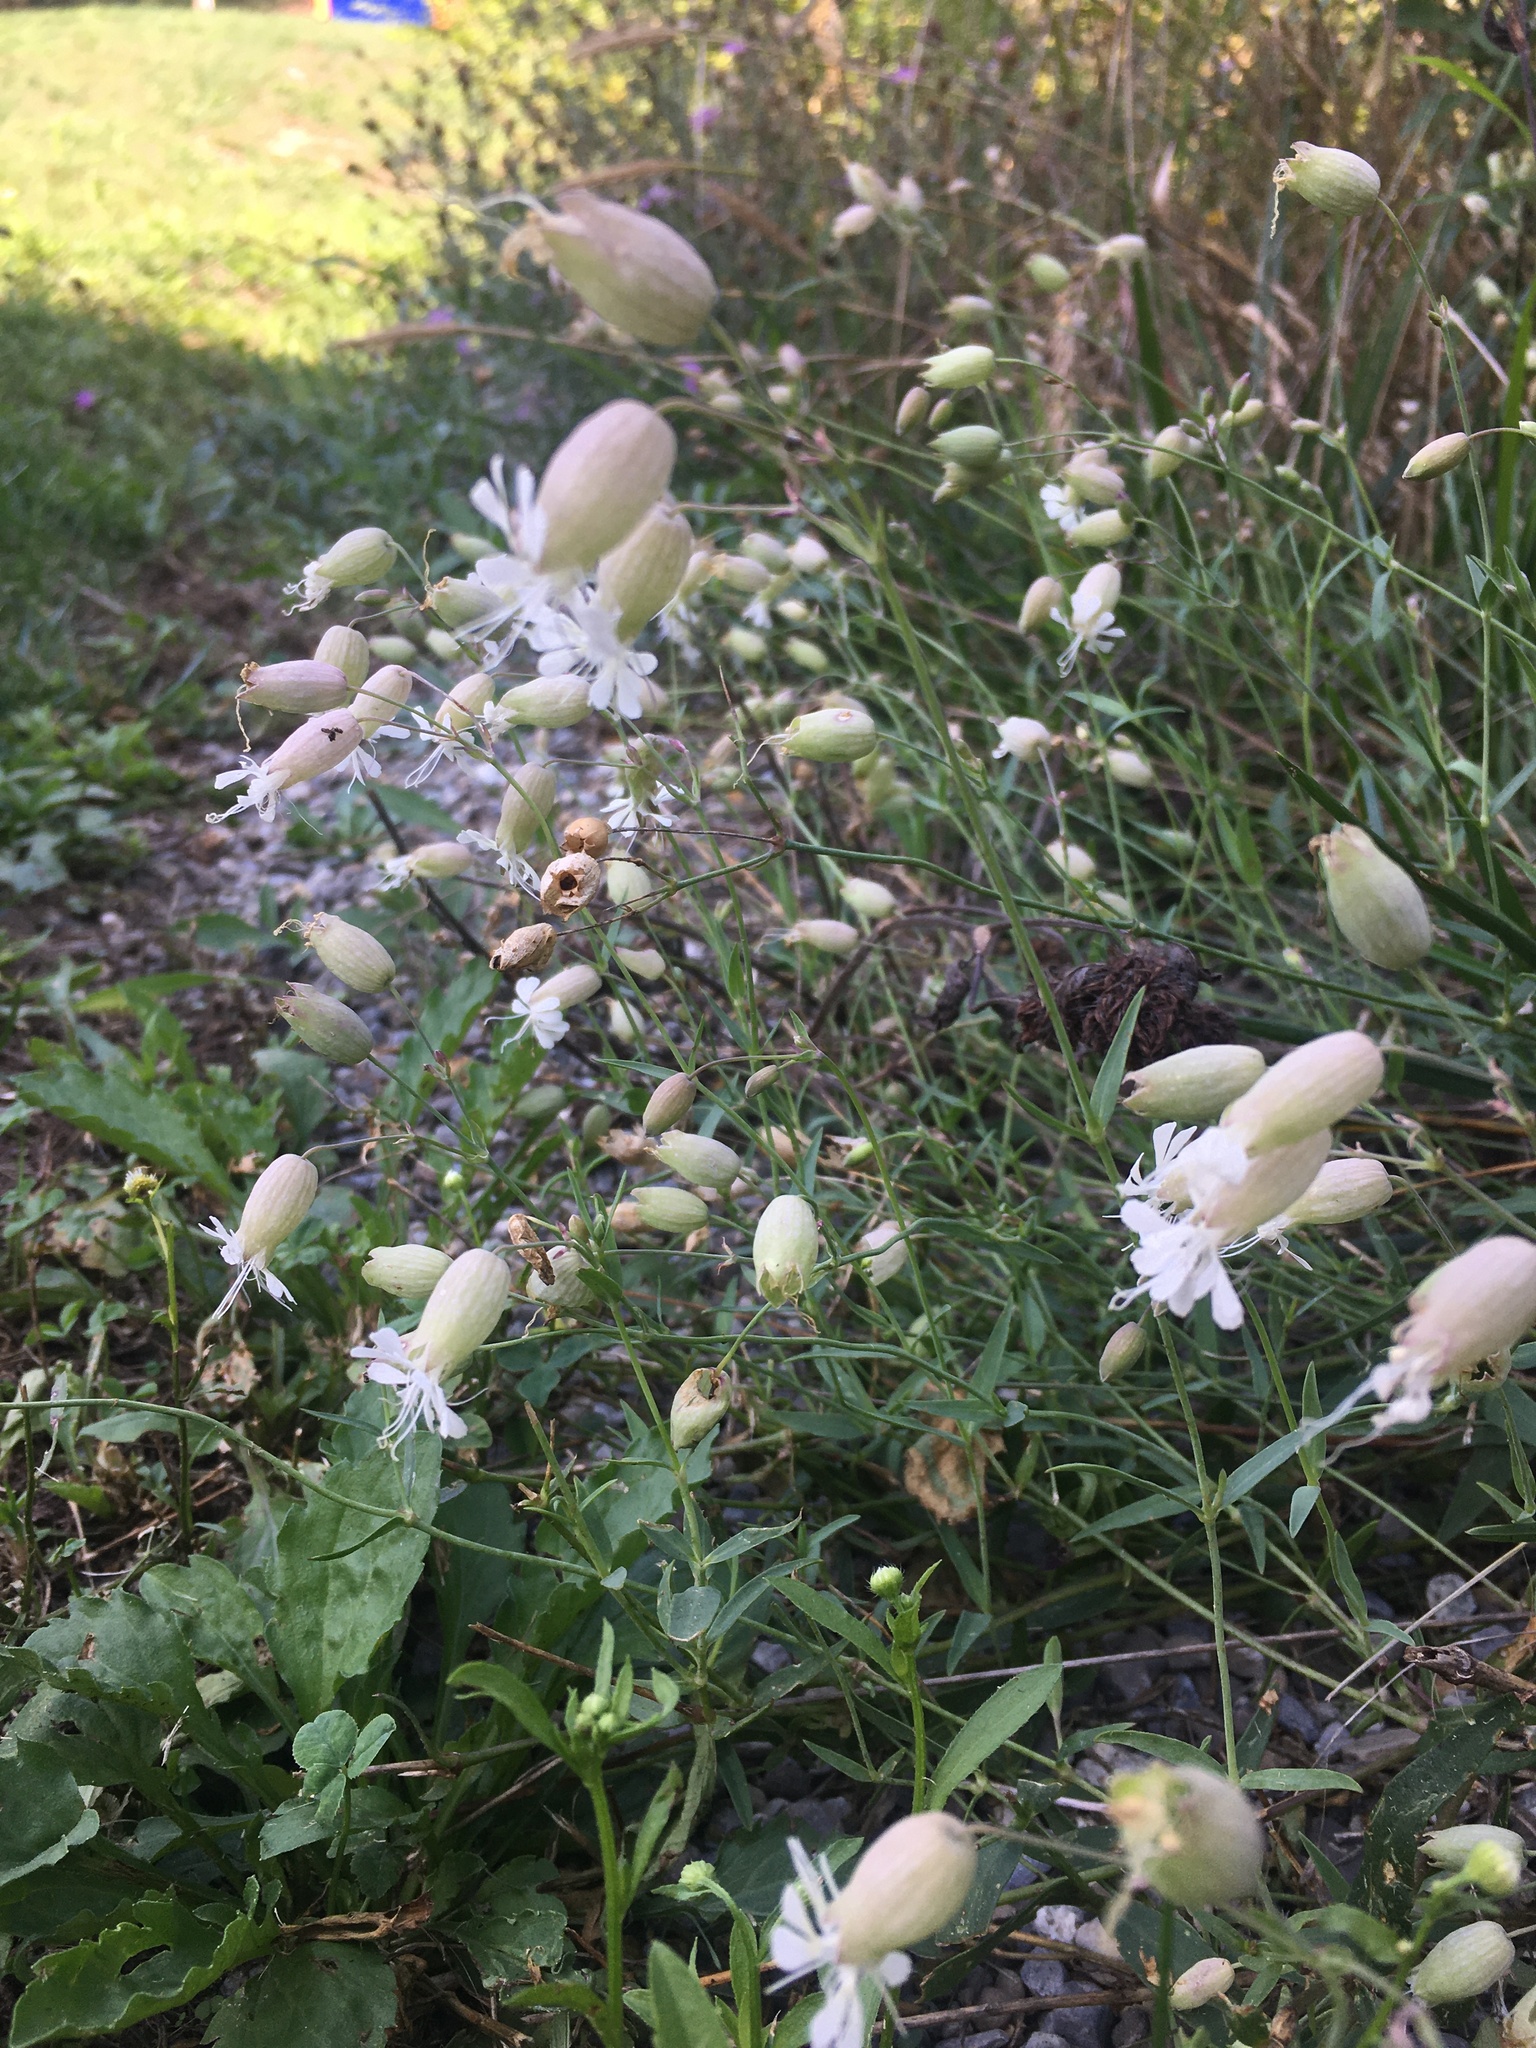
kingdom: Plantae
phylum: Tracheophyta
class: Magnoliopsida
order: Caryophyllales
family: Caryophyllaceae
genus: Silene
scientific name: Silene vulgaris
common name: Bladder campion
